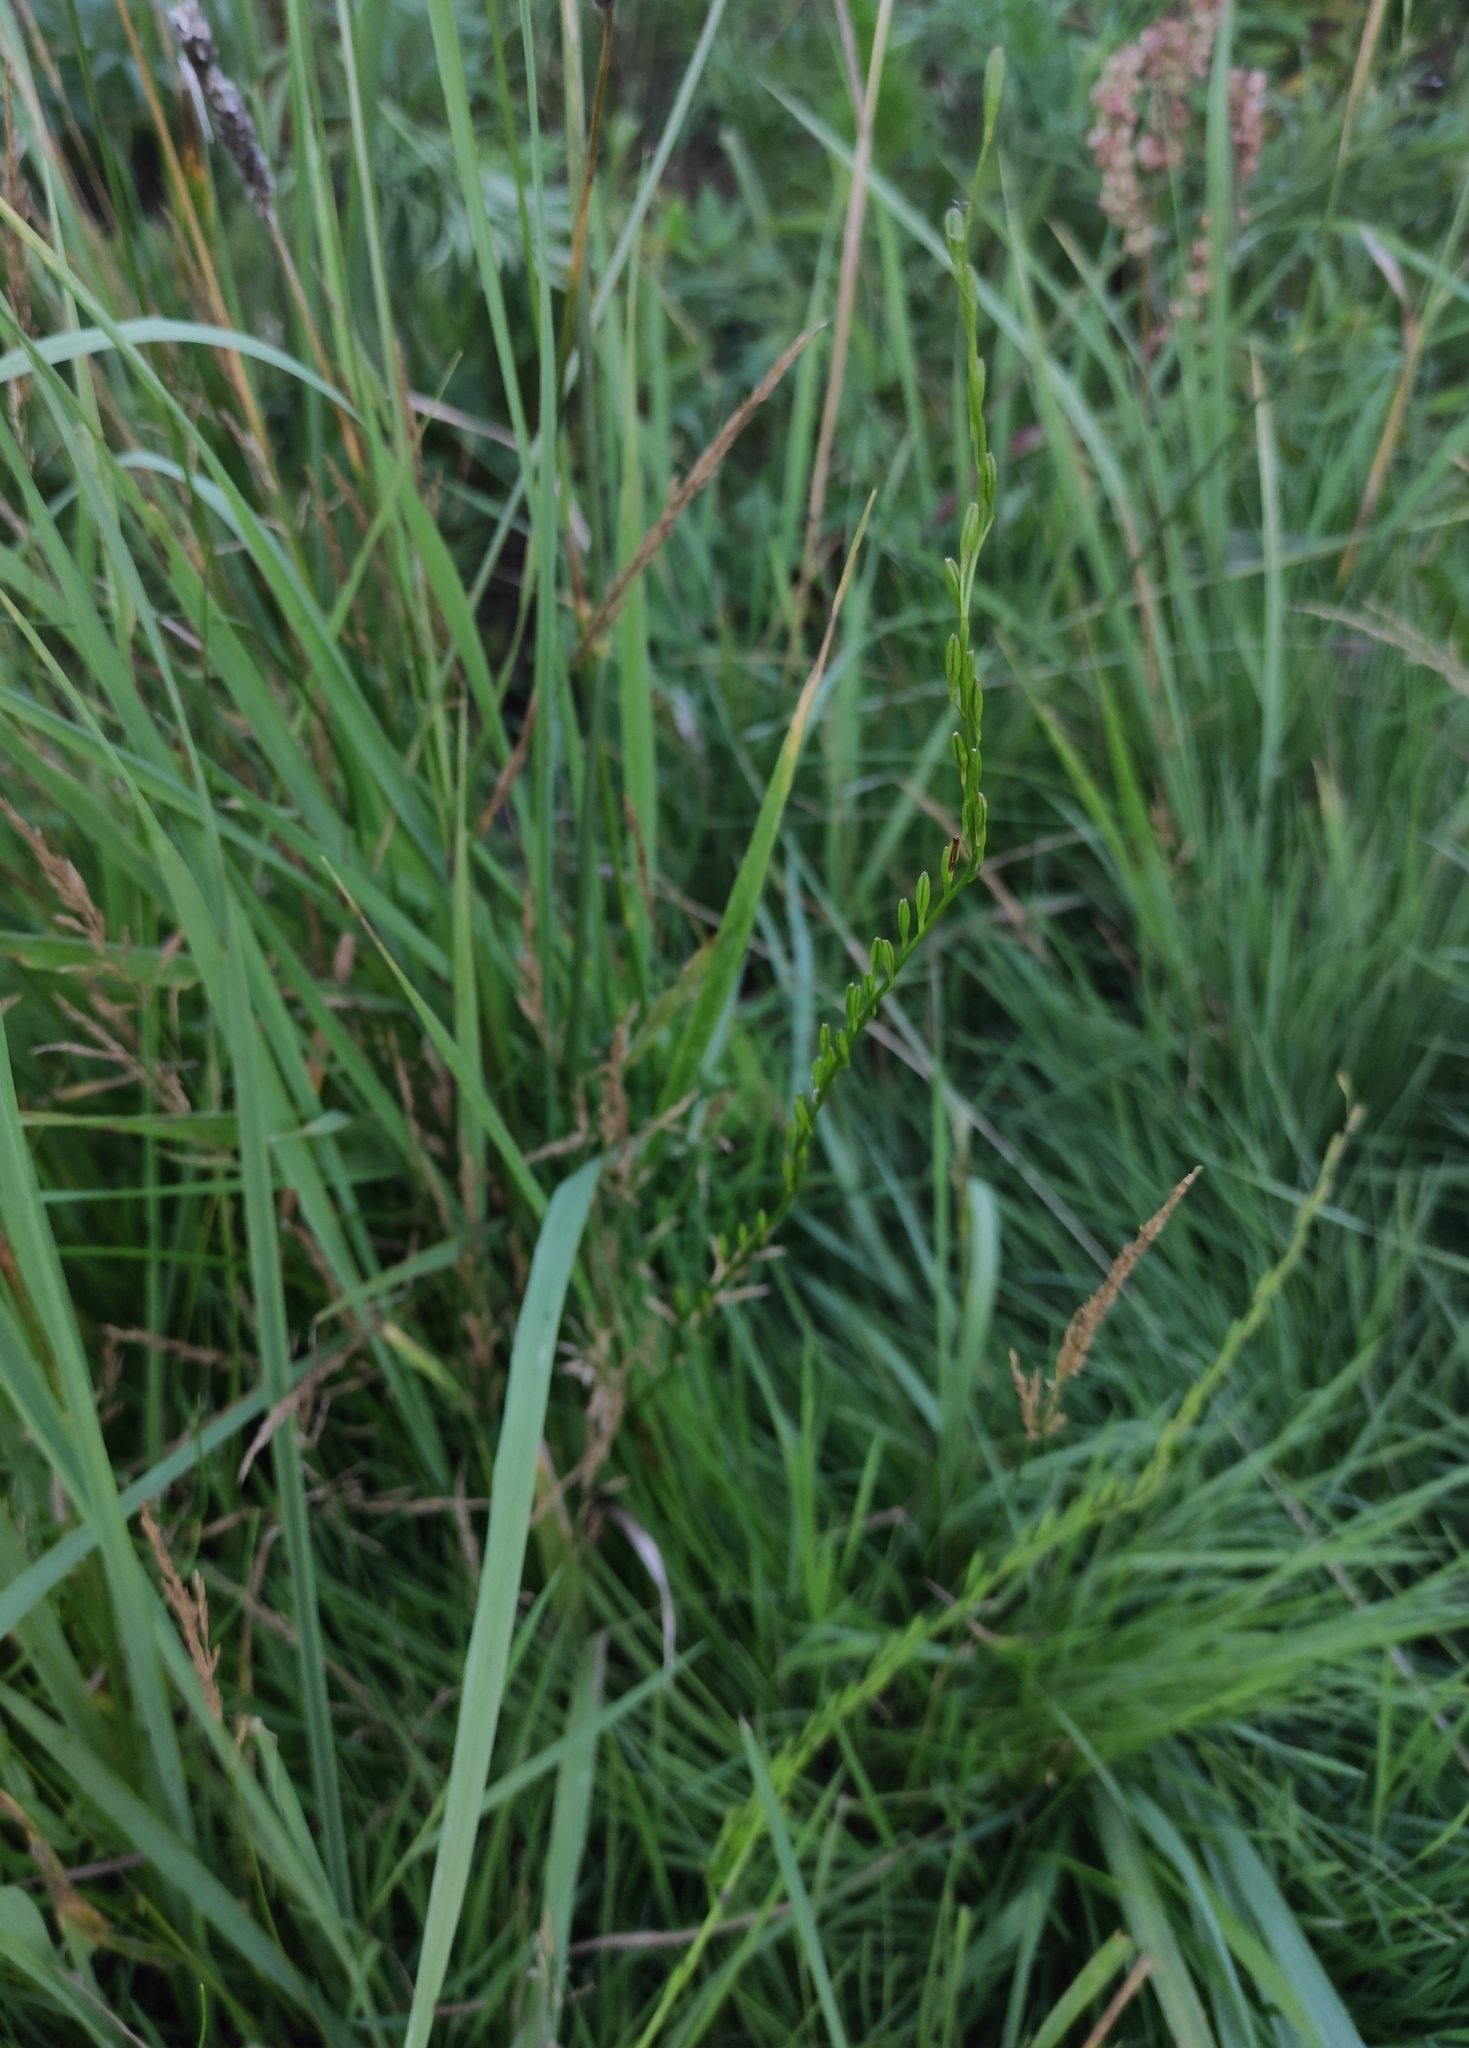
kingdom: Plantae
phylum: Tracheophyta
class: Liliopsida
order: Alismatales
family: Juncaginaceae
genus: Triglochin
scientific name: Triglochin palustris
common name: Marsh arrowgrass
